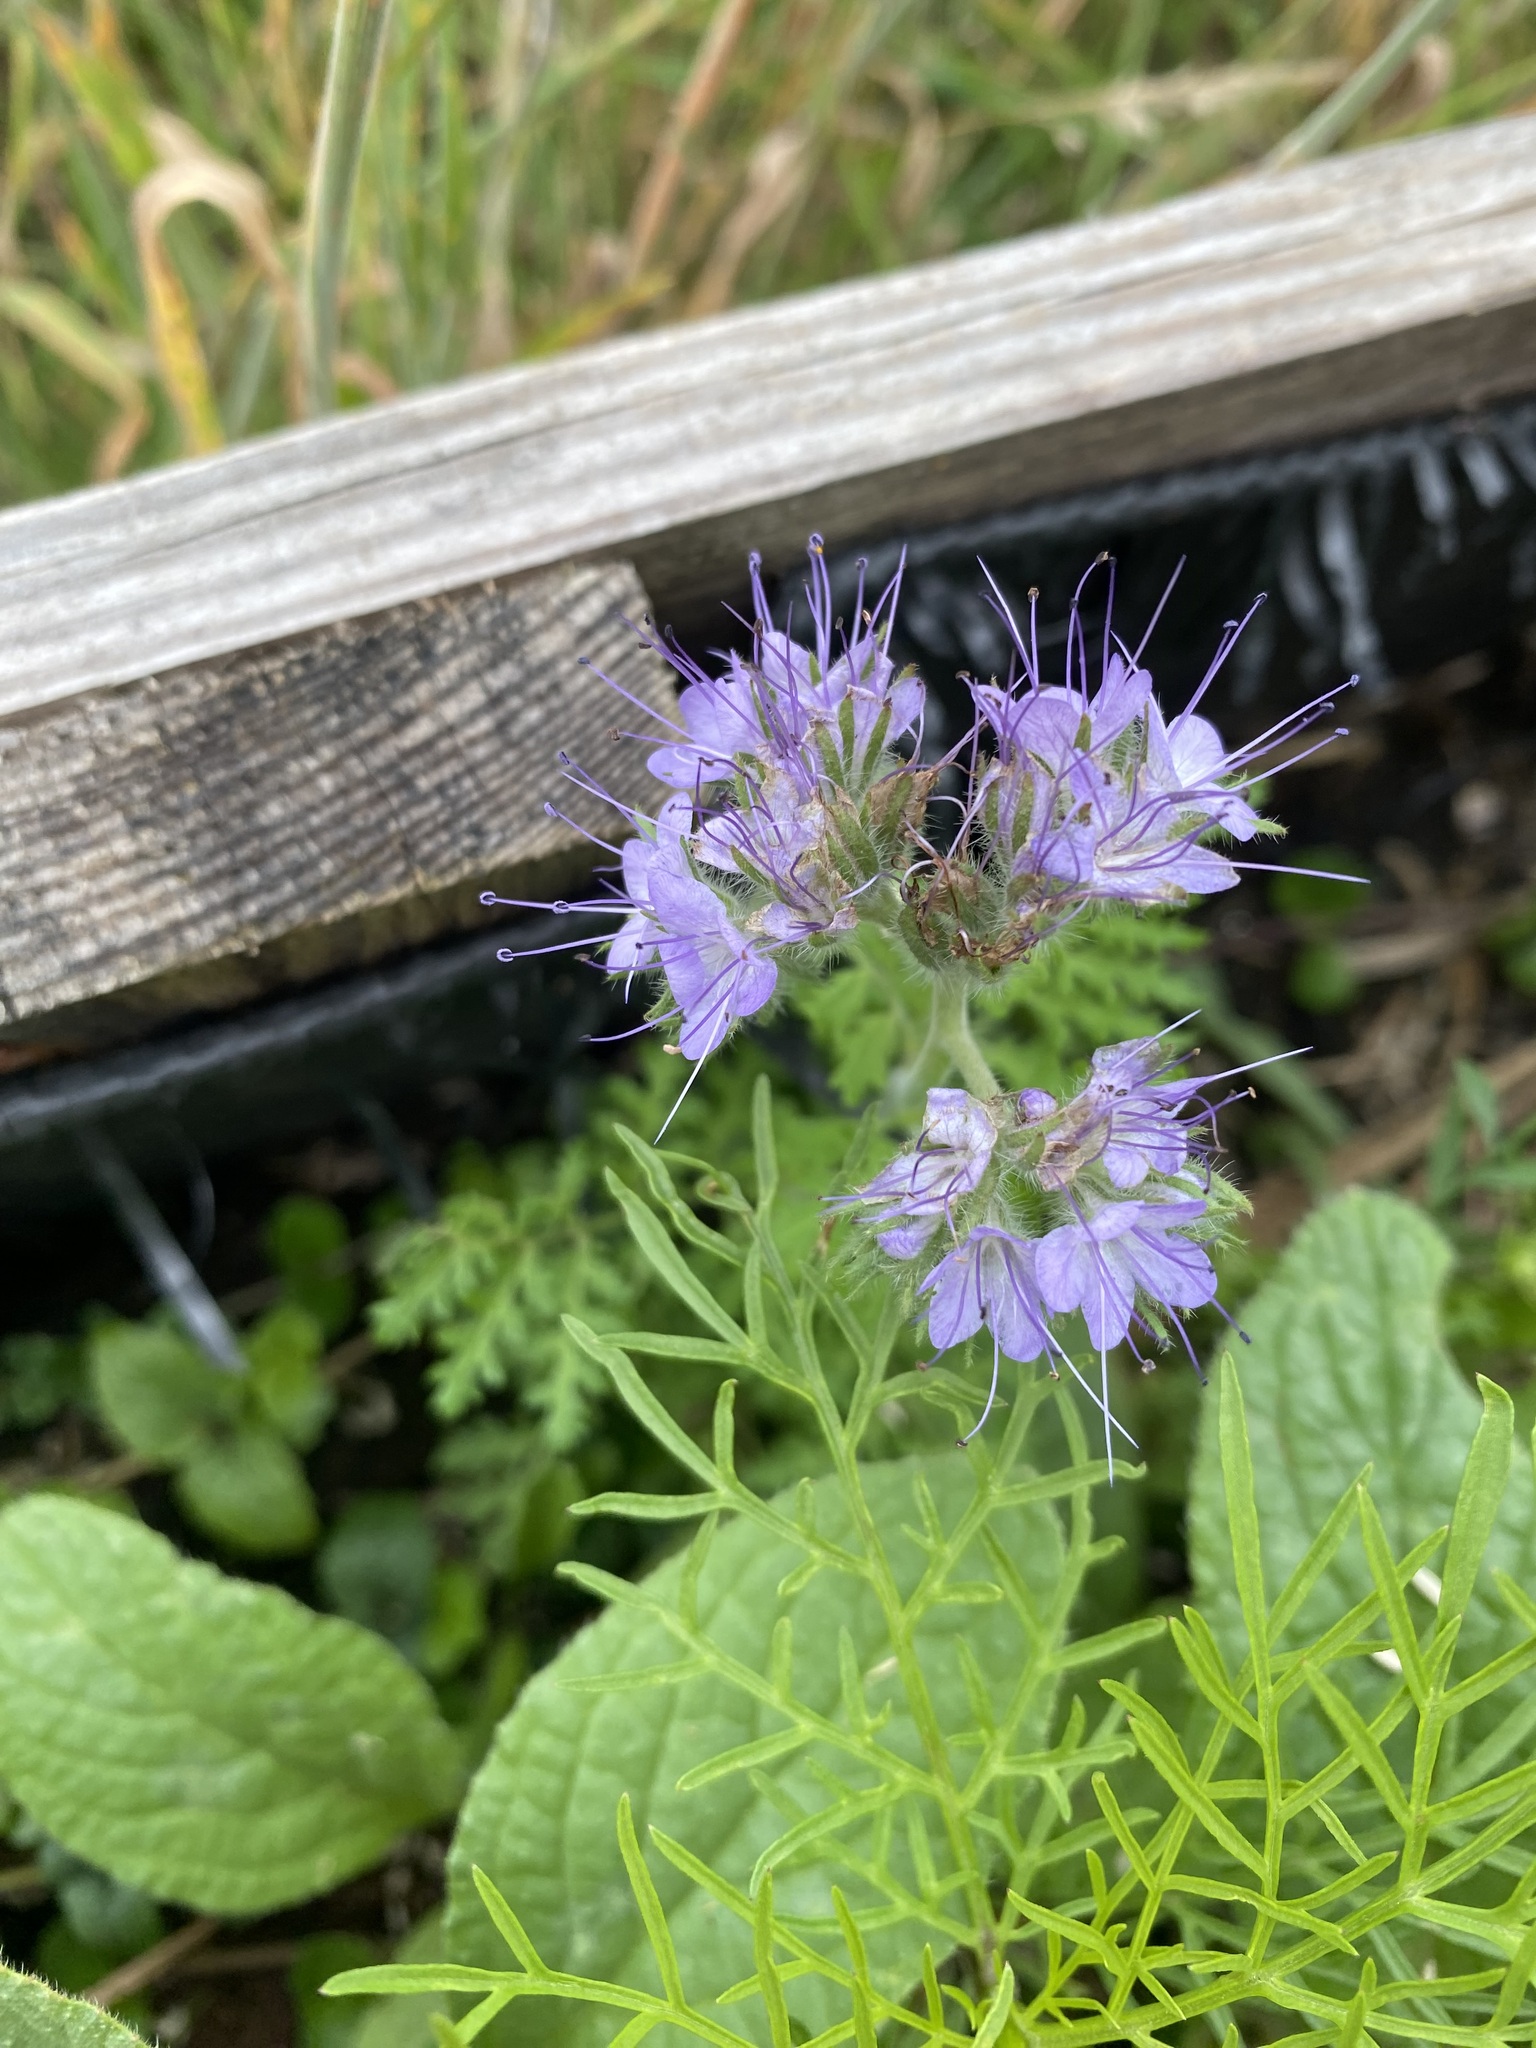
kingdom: Plantae
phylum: Tracheophyta
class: Magnoliopsida
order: Boraginales
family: Hydrophyllaceae
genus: Phacelia
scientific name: Phacelia tanacetifolia
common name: Phacelia
